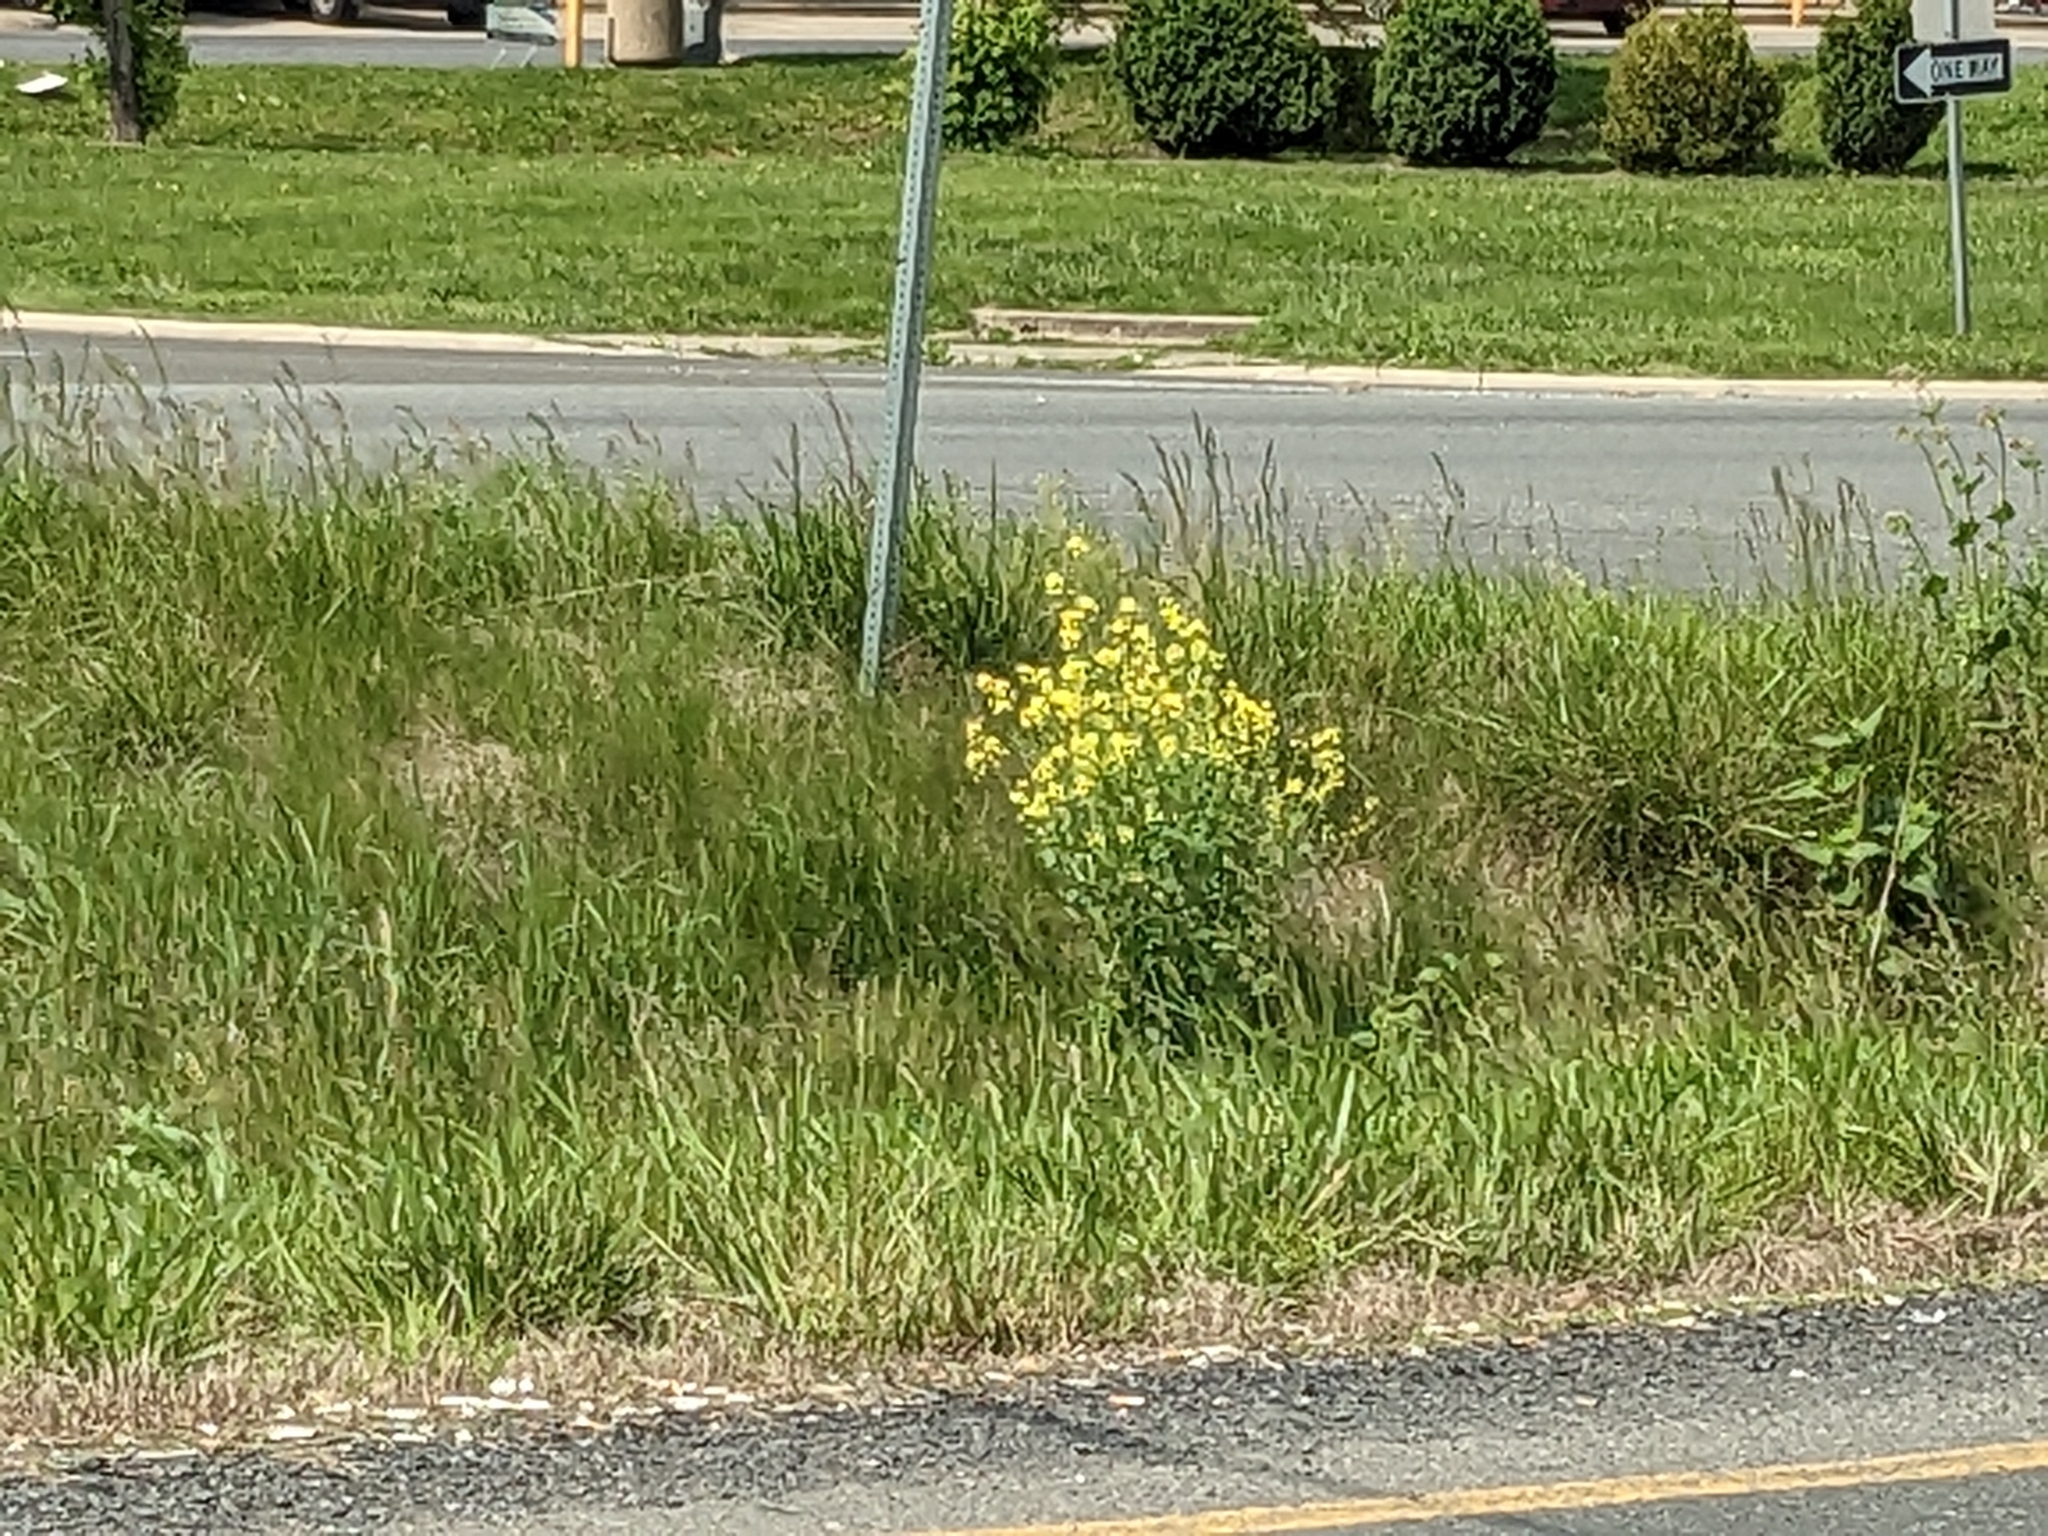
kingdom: Plantae
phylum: Tracheophyta
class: Magnoliopsida
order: Brassicales
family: Brassicaceae
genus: Barbarea
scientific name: Barbarea vulgaris
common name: Cressy-greens
